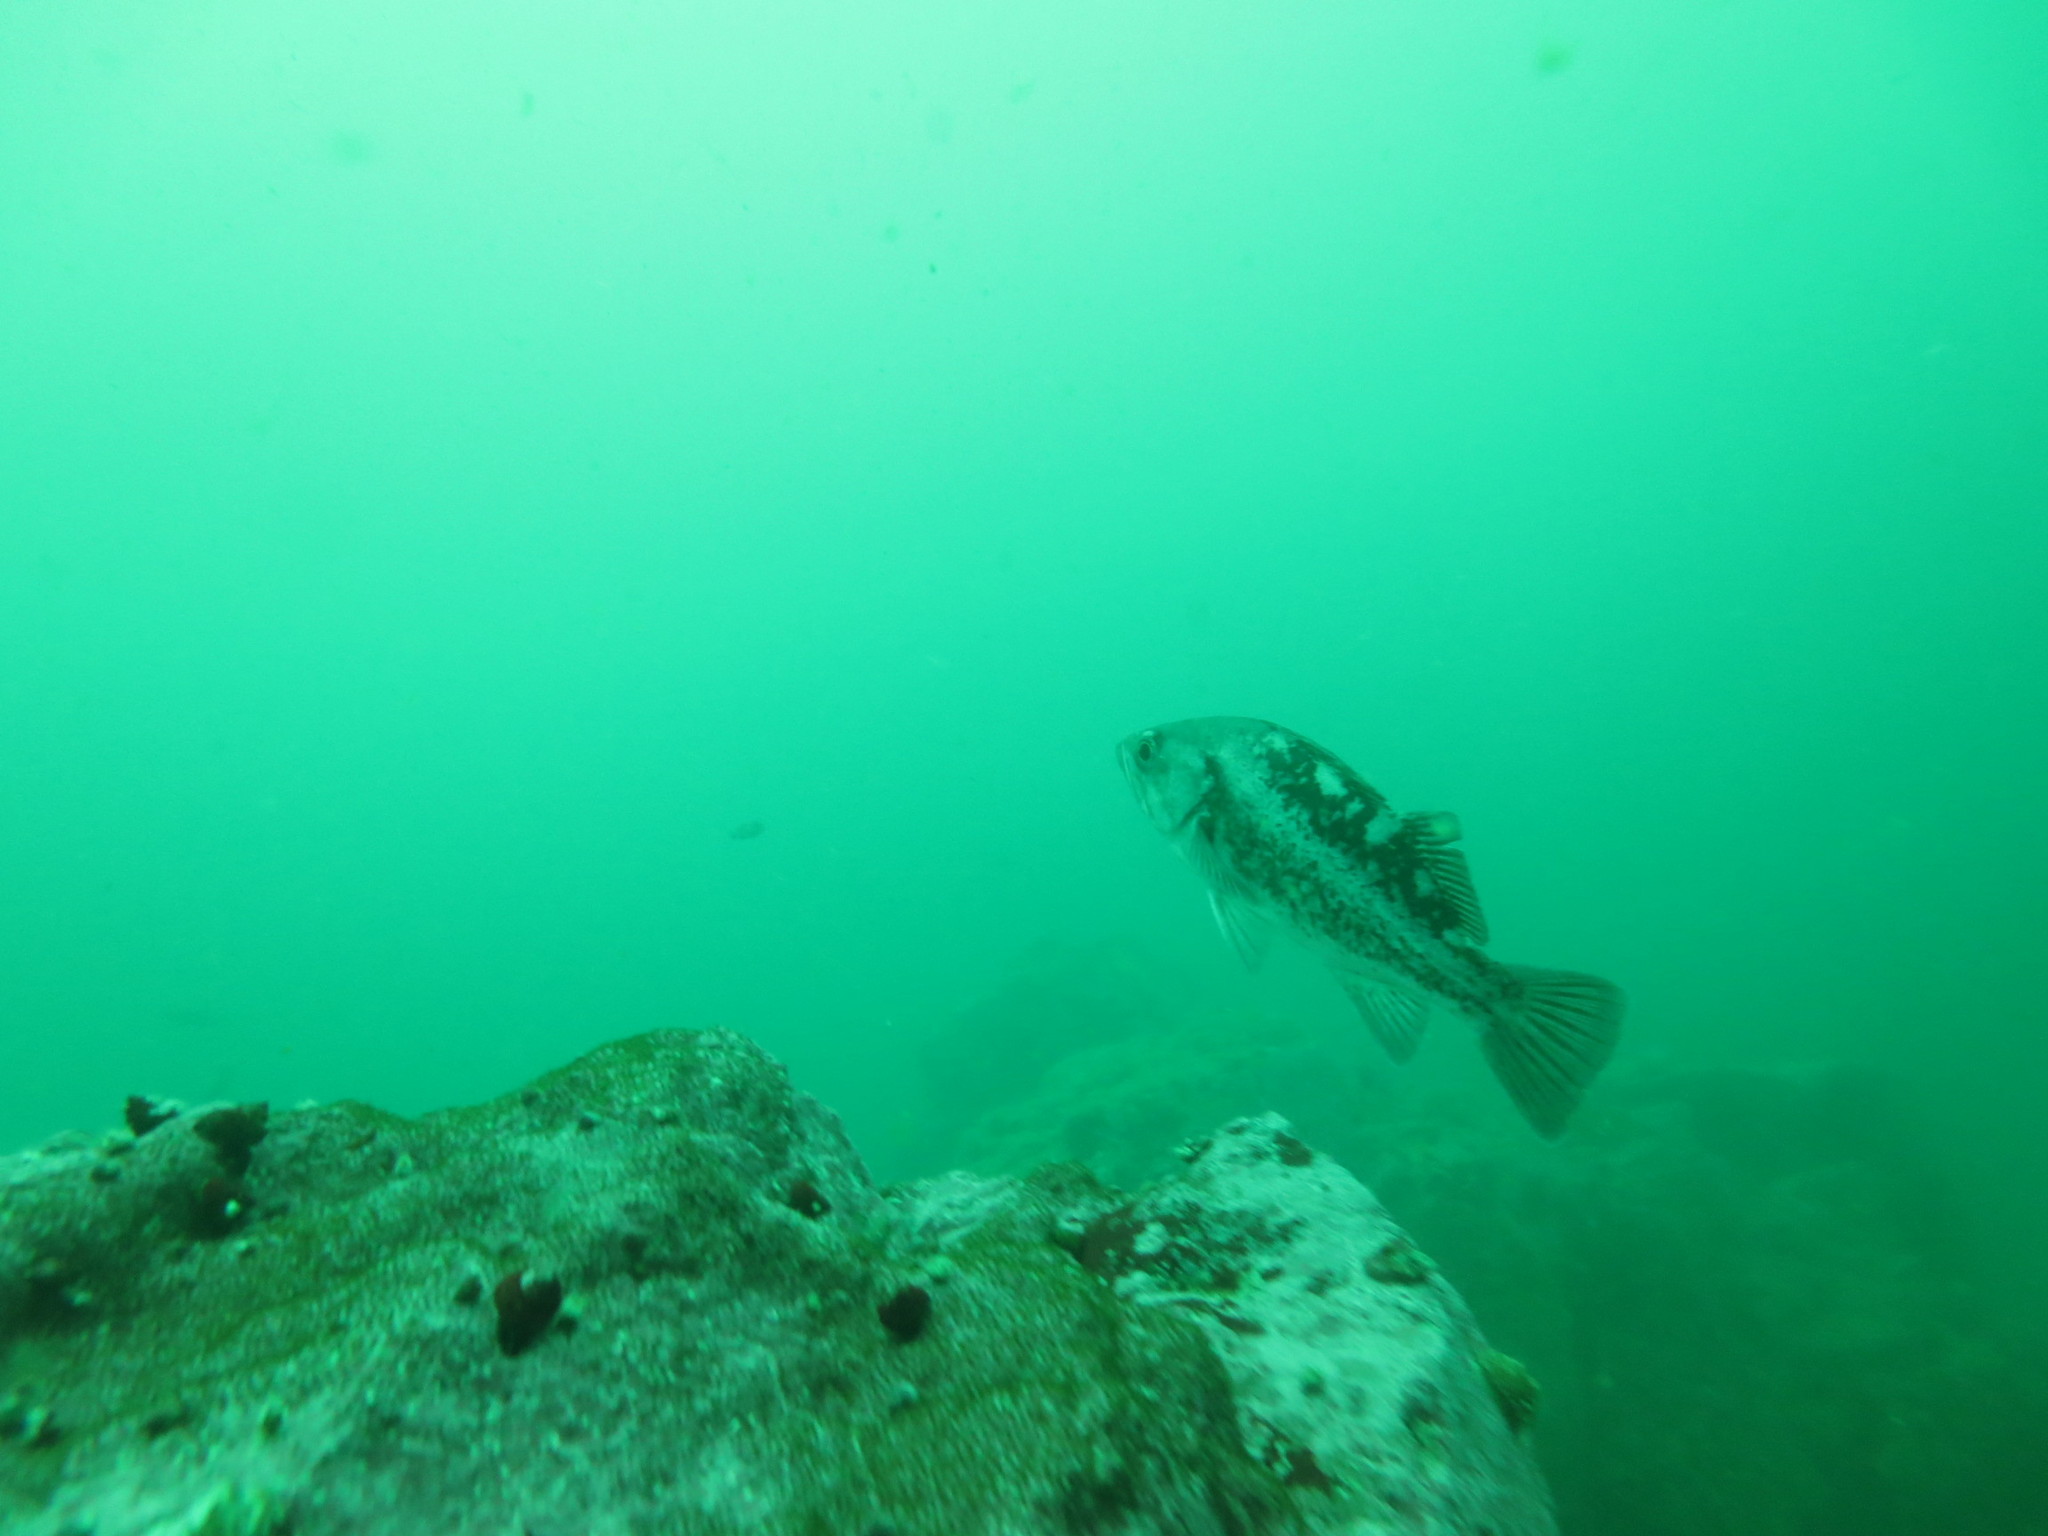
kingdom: Animalia
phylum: Chordata
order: Scorpaeniformes
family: Sebastidae
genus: Sebastes
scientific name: Sebastes melanops
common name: Black rockfish
